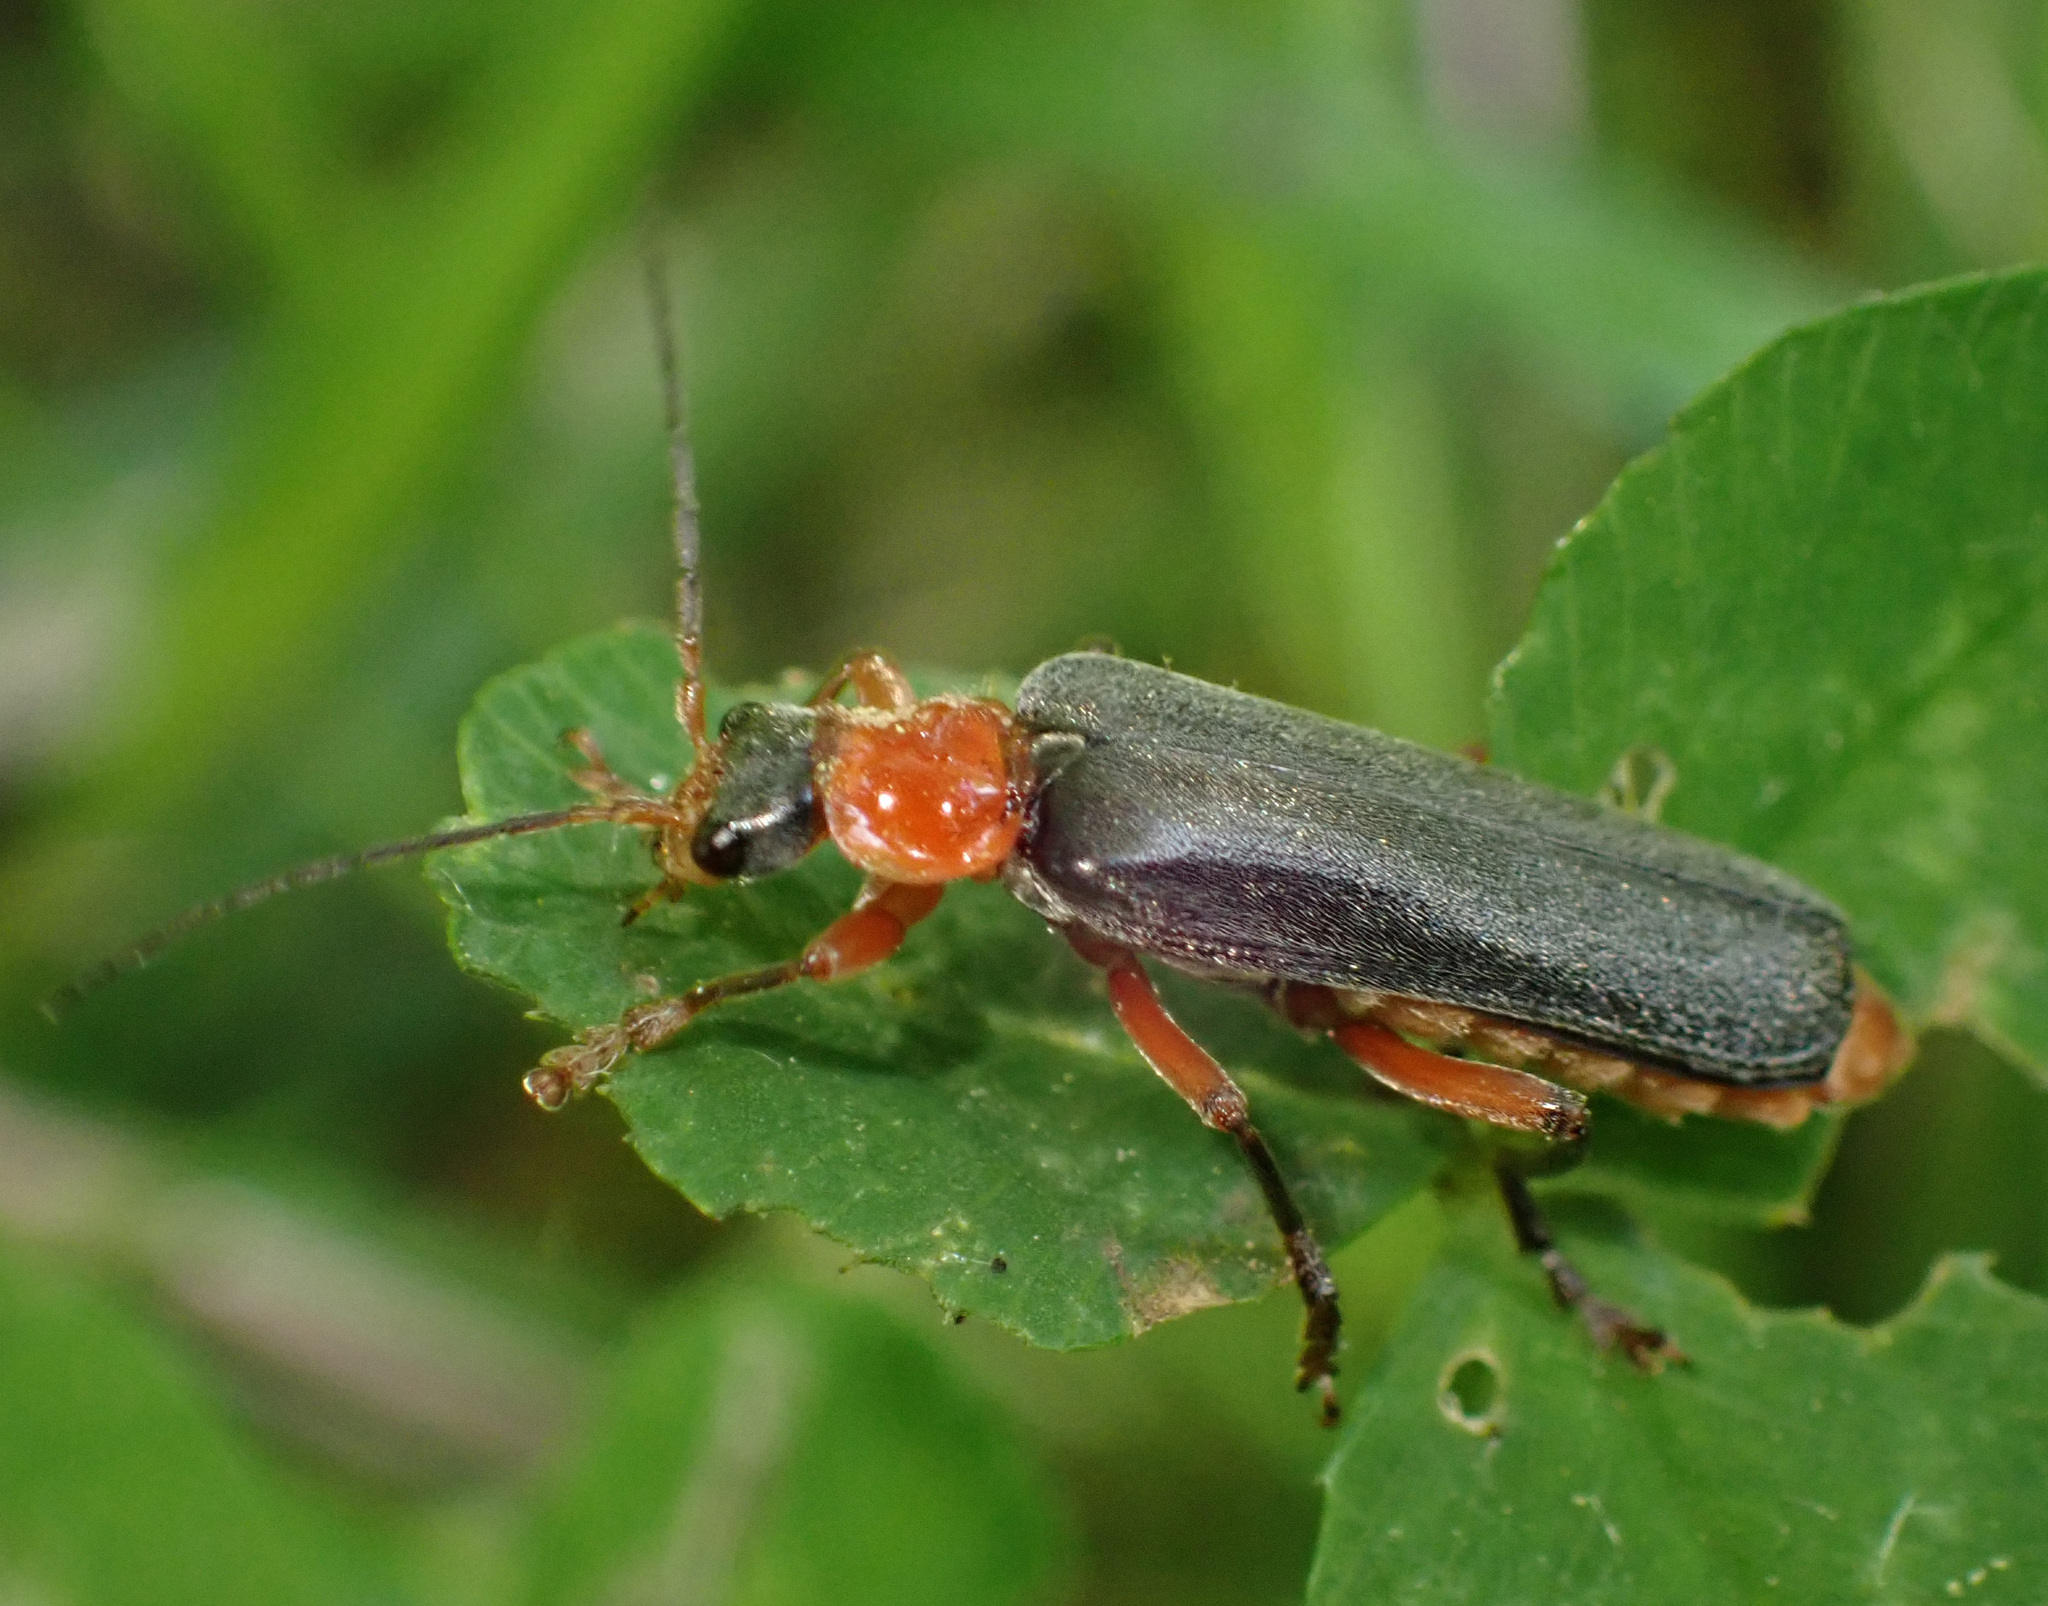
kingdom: Animalia
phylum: Arthropoda
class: Insecta
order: Coleoptera
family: Cantharidae
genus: Cantharis
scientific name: Cantharis pellucida
